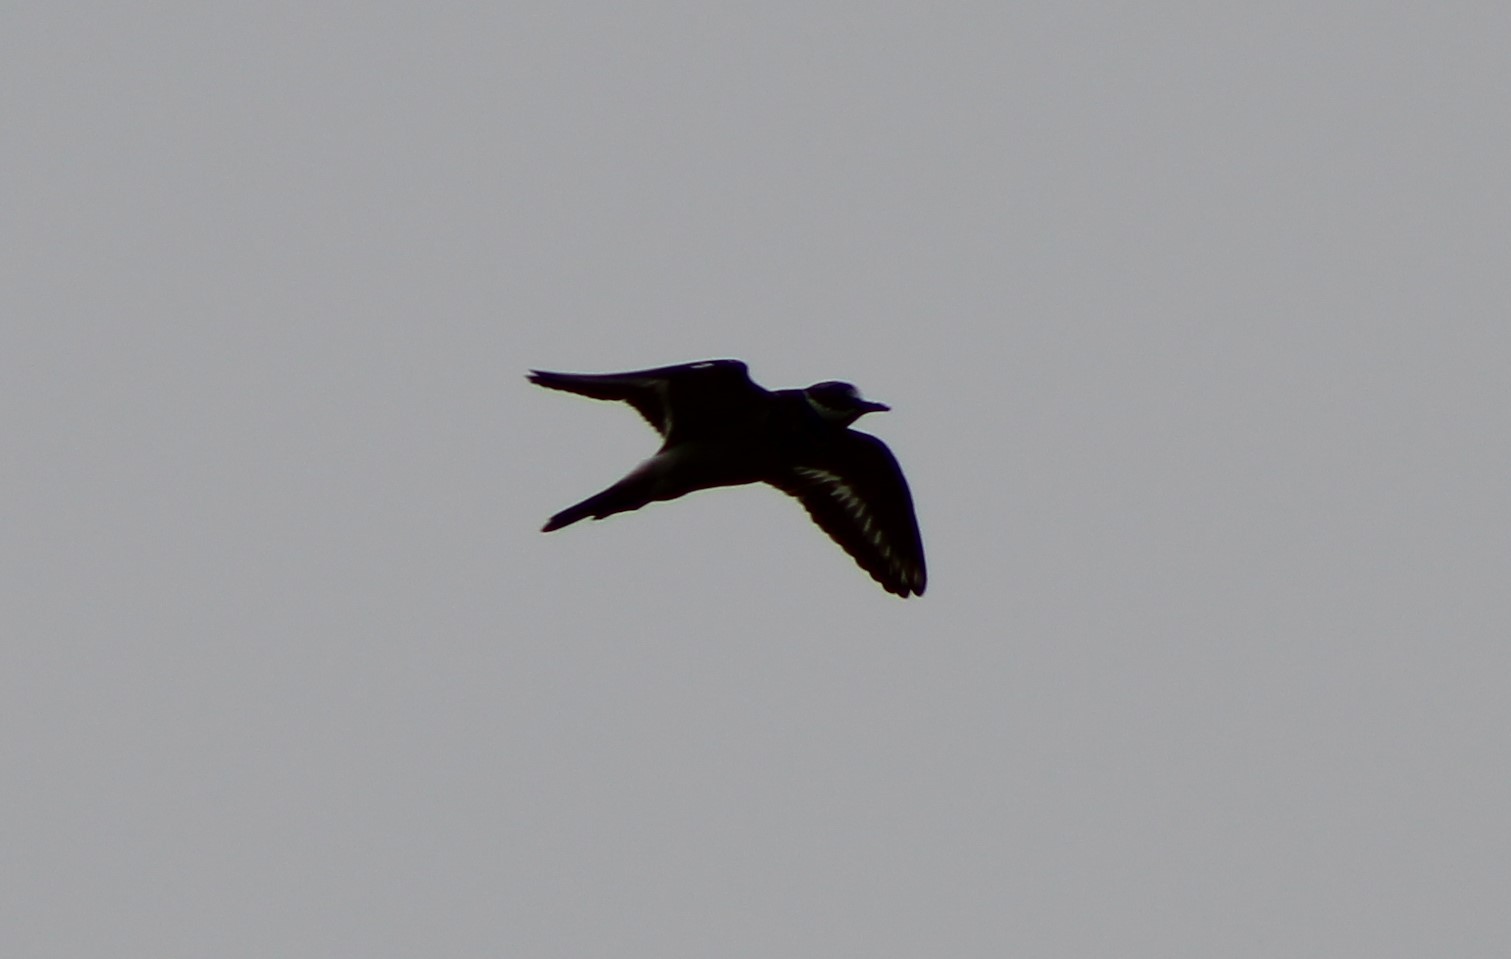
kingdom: Animalia
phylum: Chordata
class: Aves
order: Charadriiformes
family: Charadriidae
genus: Charadrius
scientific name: Charadrius vociferus
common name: Killdeer
